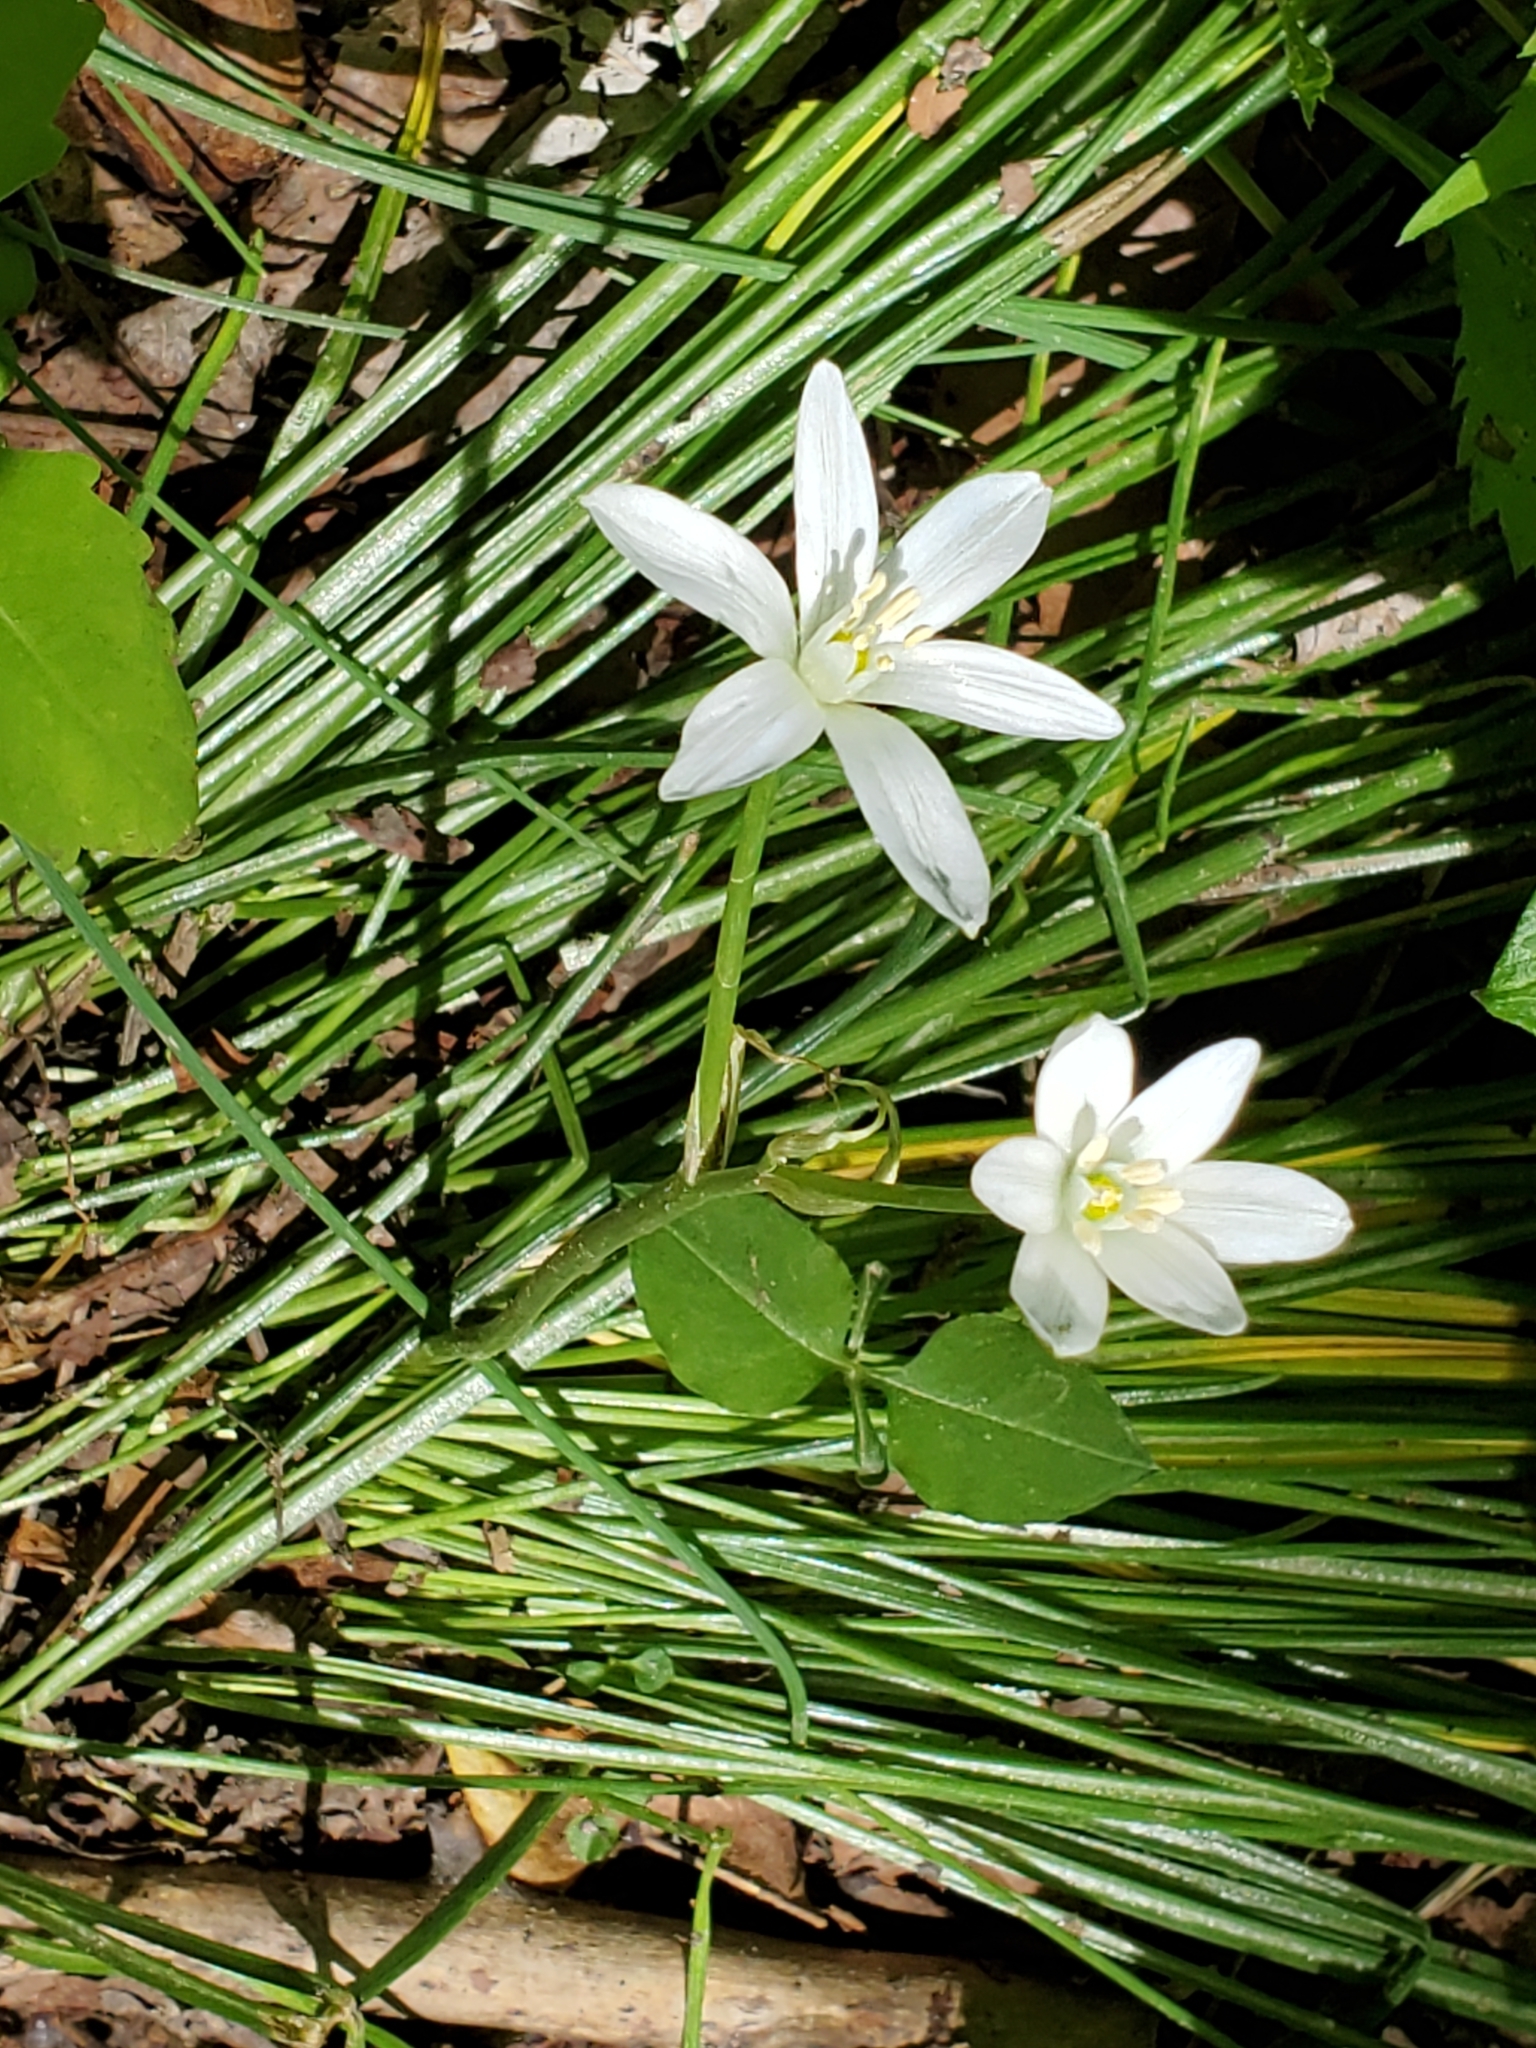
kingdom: Plantae
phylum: Tracheophyta
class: Liliopsida
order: Asparagales
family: Asparagaceae
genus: Ornithogalum
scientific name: Ornithogalum umbellatum
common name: Garden star-of-bethlehem
